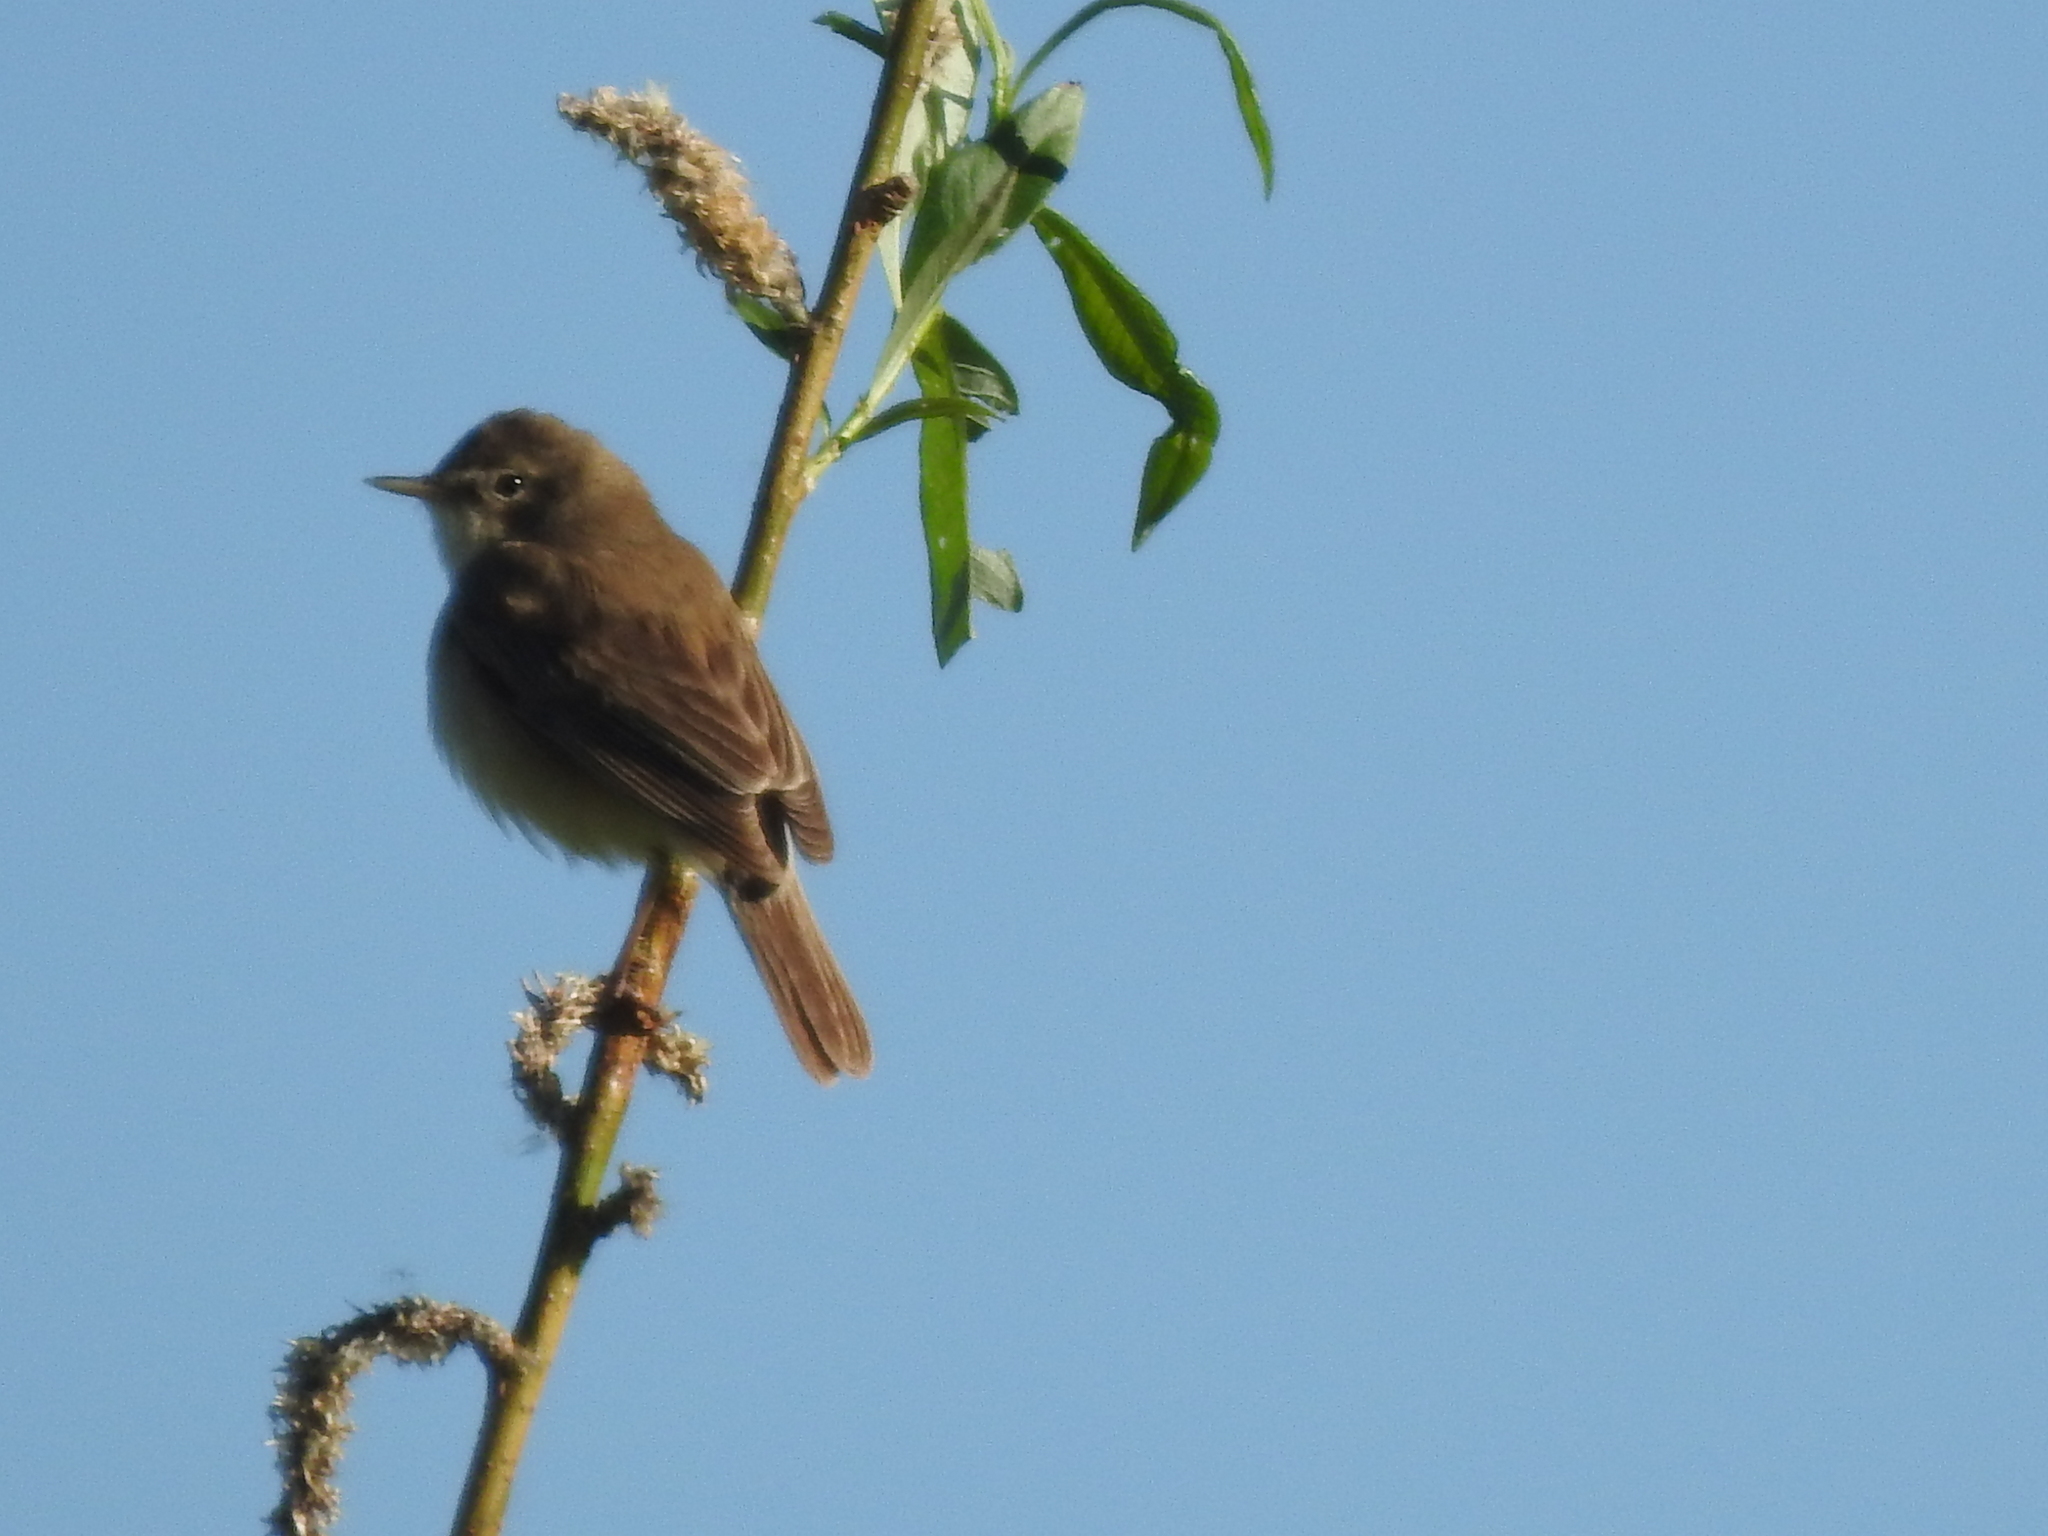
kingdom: Animalia
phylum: Chordata
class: Aves
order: Passeriformes
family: Acrocephalidae
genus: Iduna
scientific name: Iduna caligata
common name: Booted warbler
